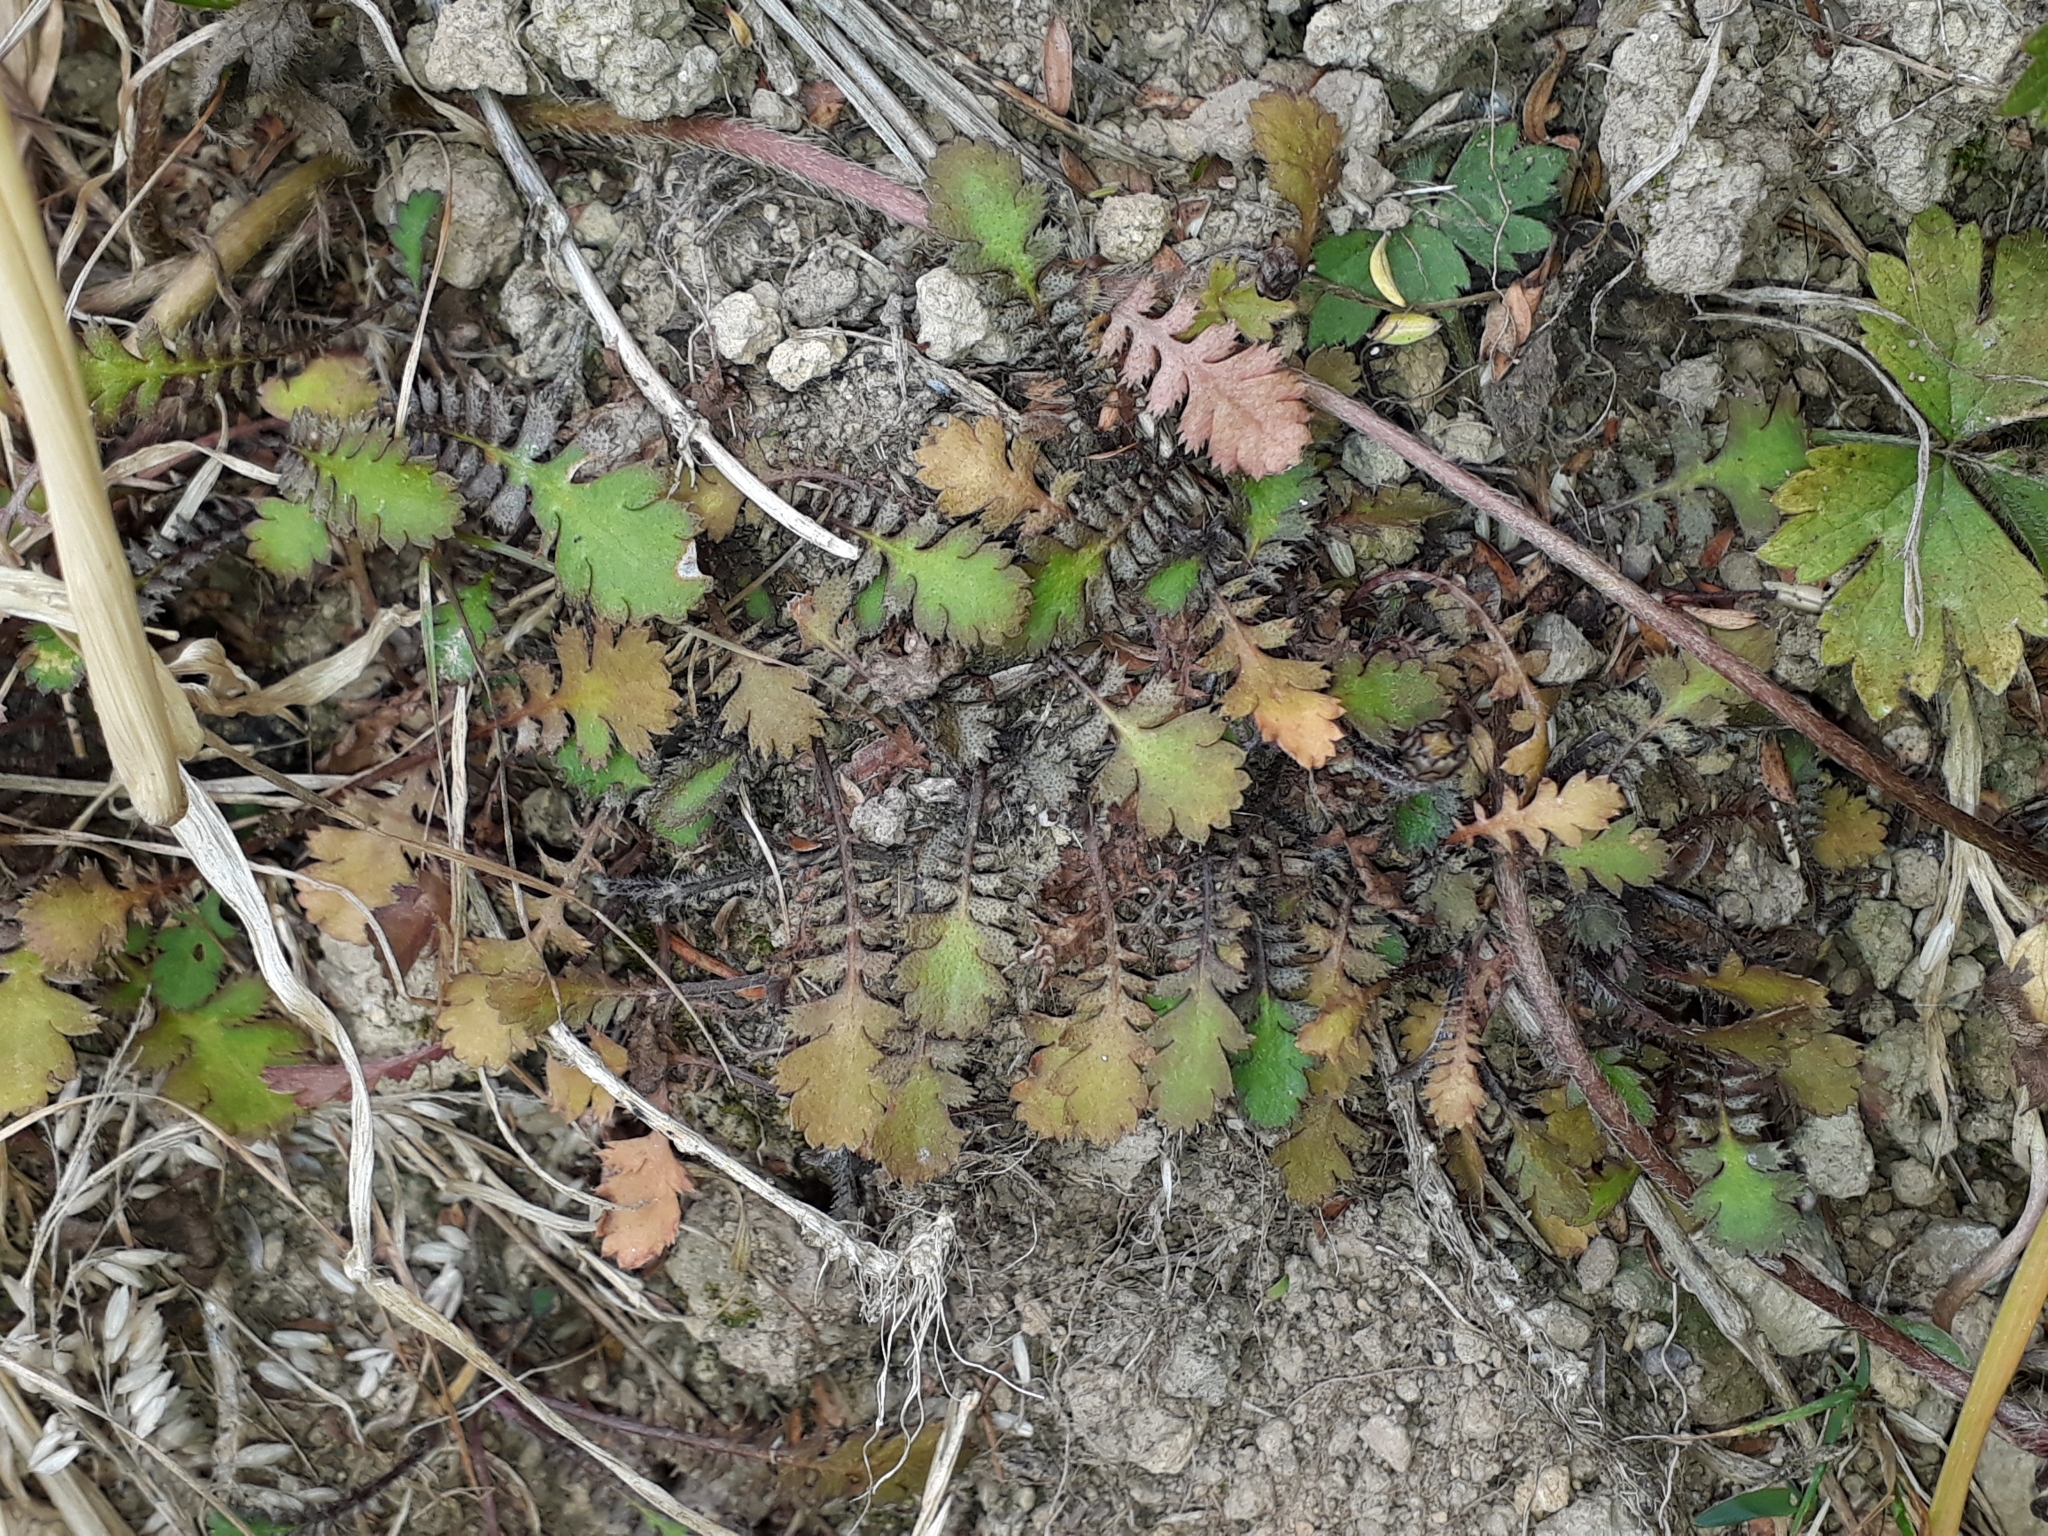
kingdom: Plantae
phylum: Tracheophyta
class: Magnoliopsida
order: Asterales
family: Asteraceae
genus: Leptinella
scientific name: Leptinella squalida
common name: New zealand brass-buttons
